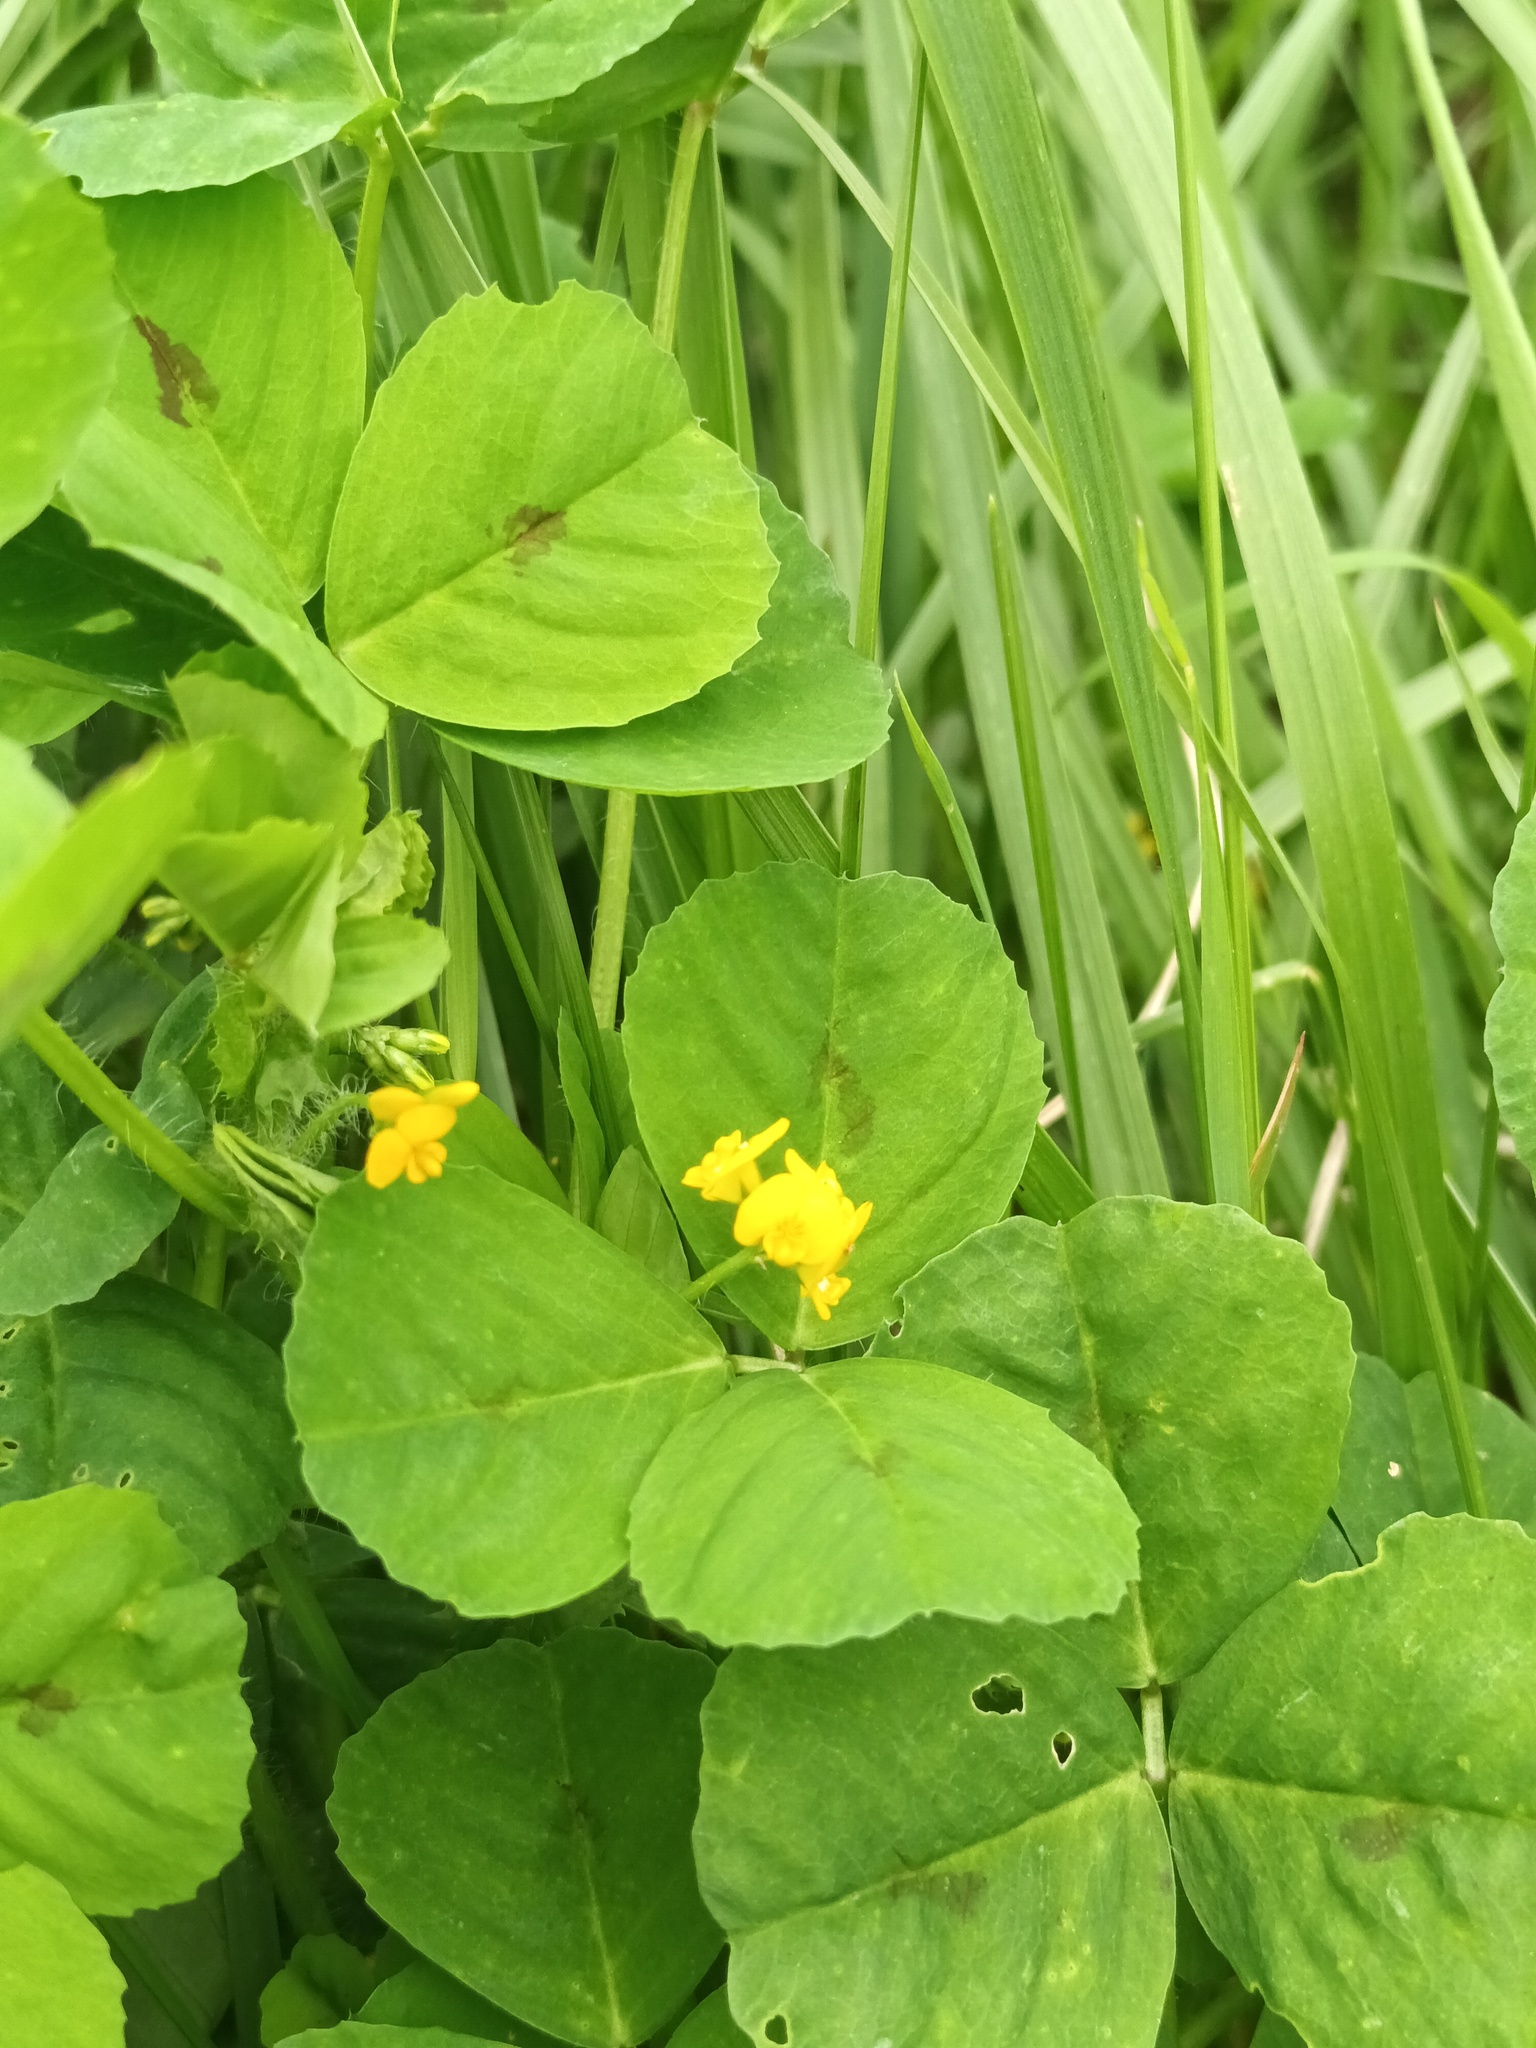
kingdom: Plantae
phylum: Tracheophyta
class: Magnoliopsida
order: Fabales
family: Fabaceae
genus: Medicago
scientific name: Medicago arabica
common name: Spotted medick
